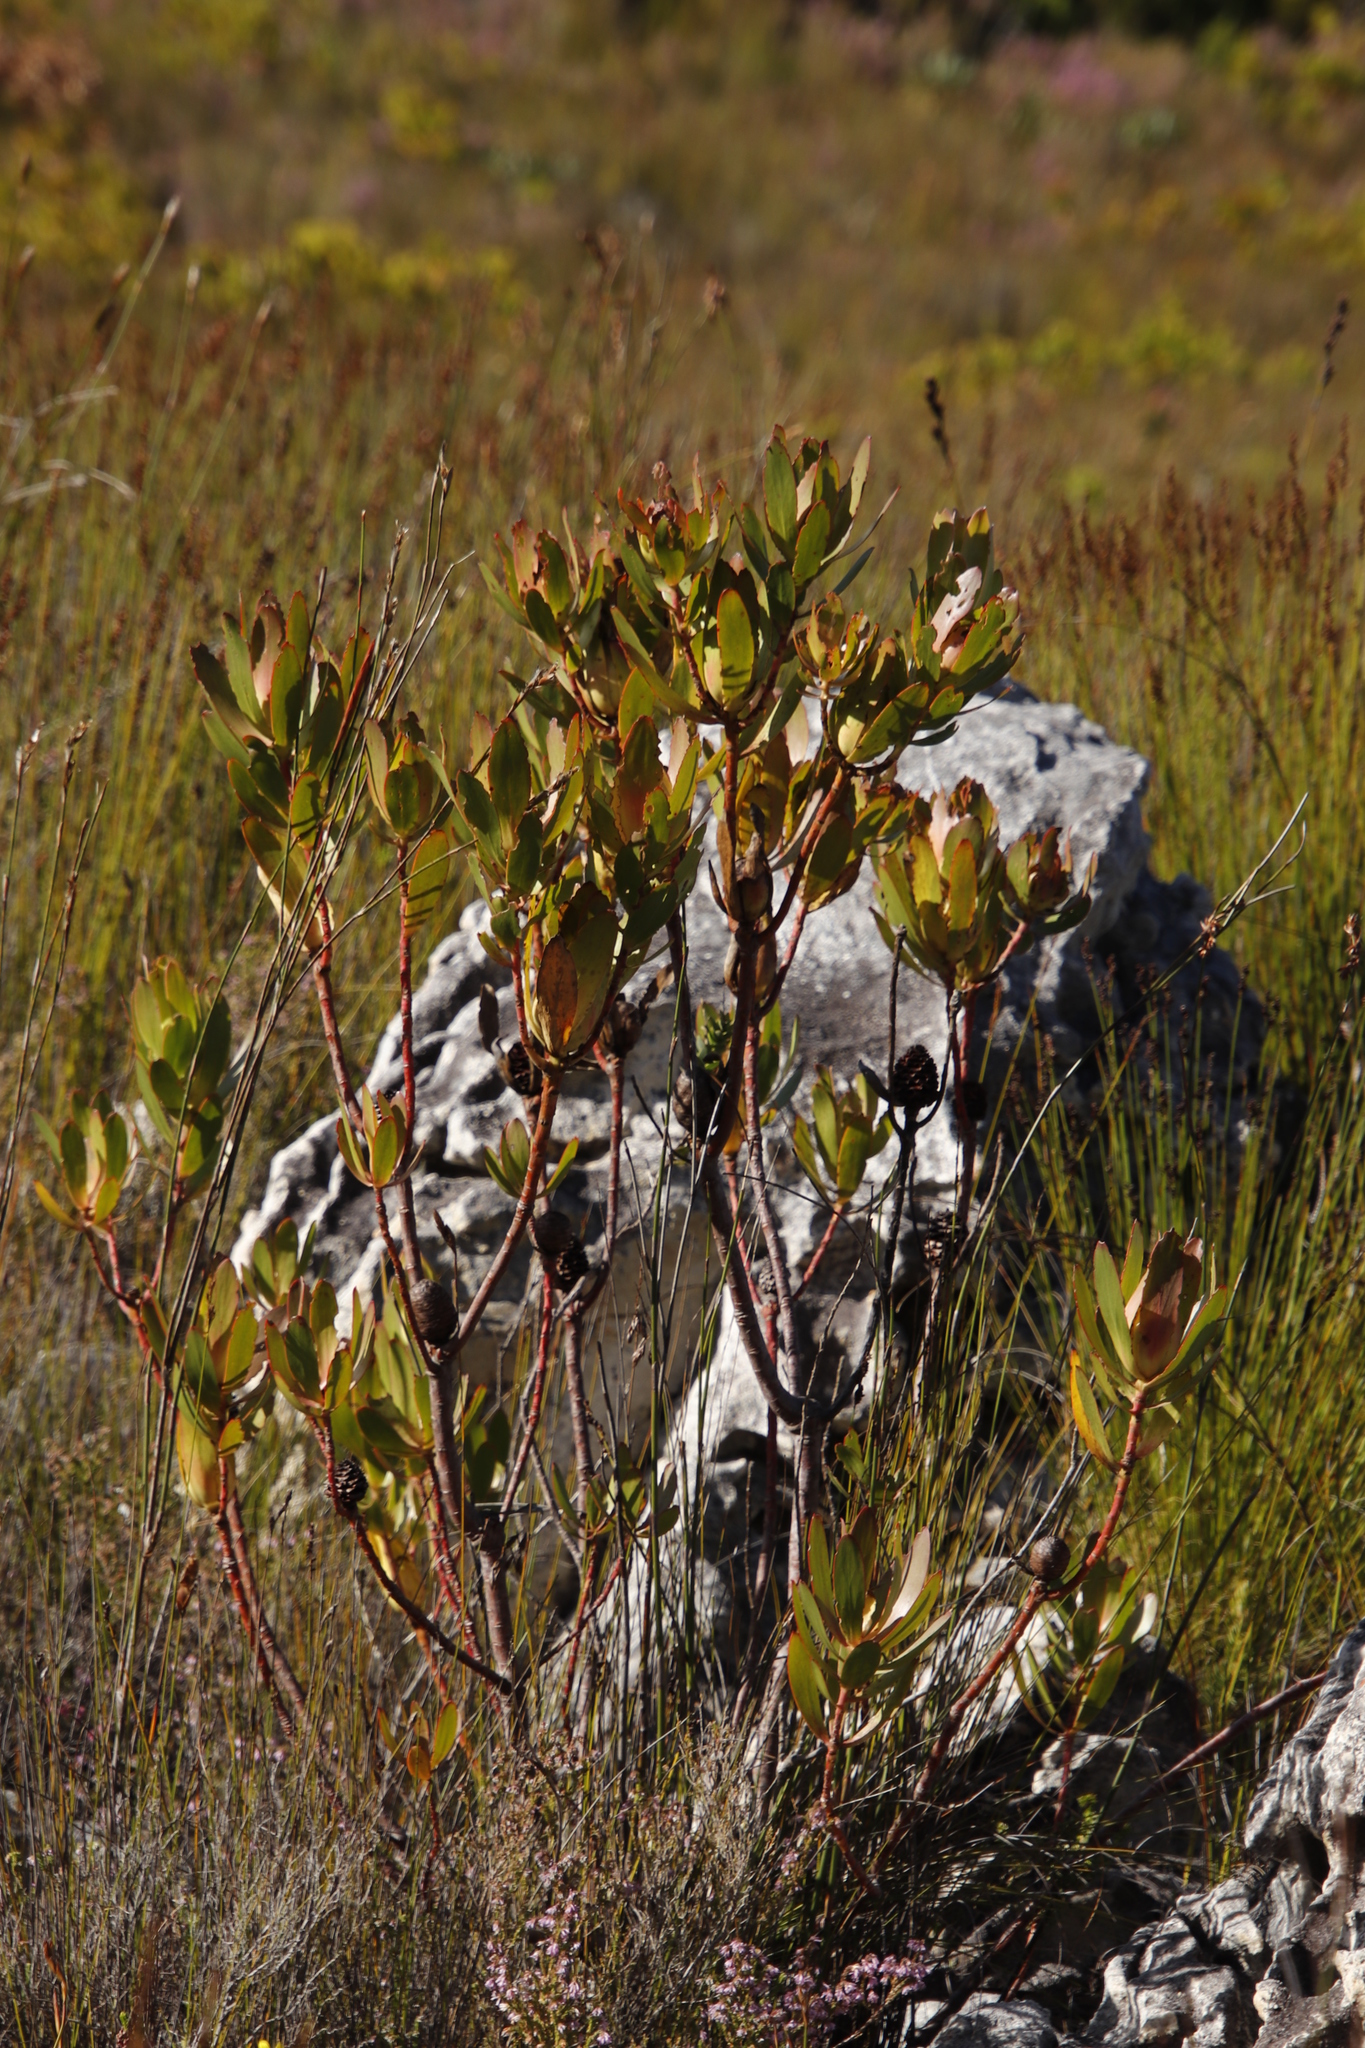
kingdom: Plantae
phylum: Tracheophyta
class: Magnoliopsida
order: Proteales
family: Proteaceae
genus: Leucadendron
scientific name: Leucadendron gandogeri
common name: Broad-leaf conebush
